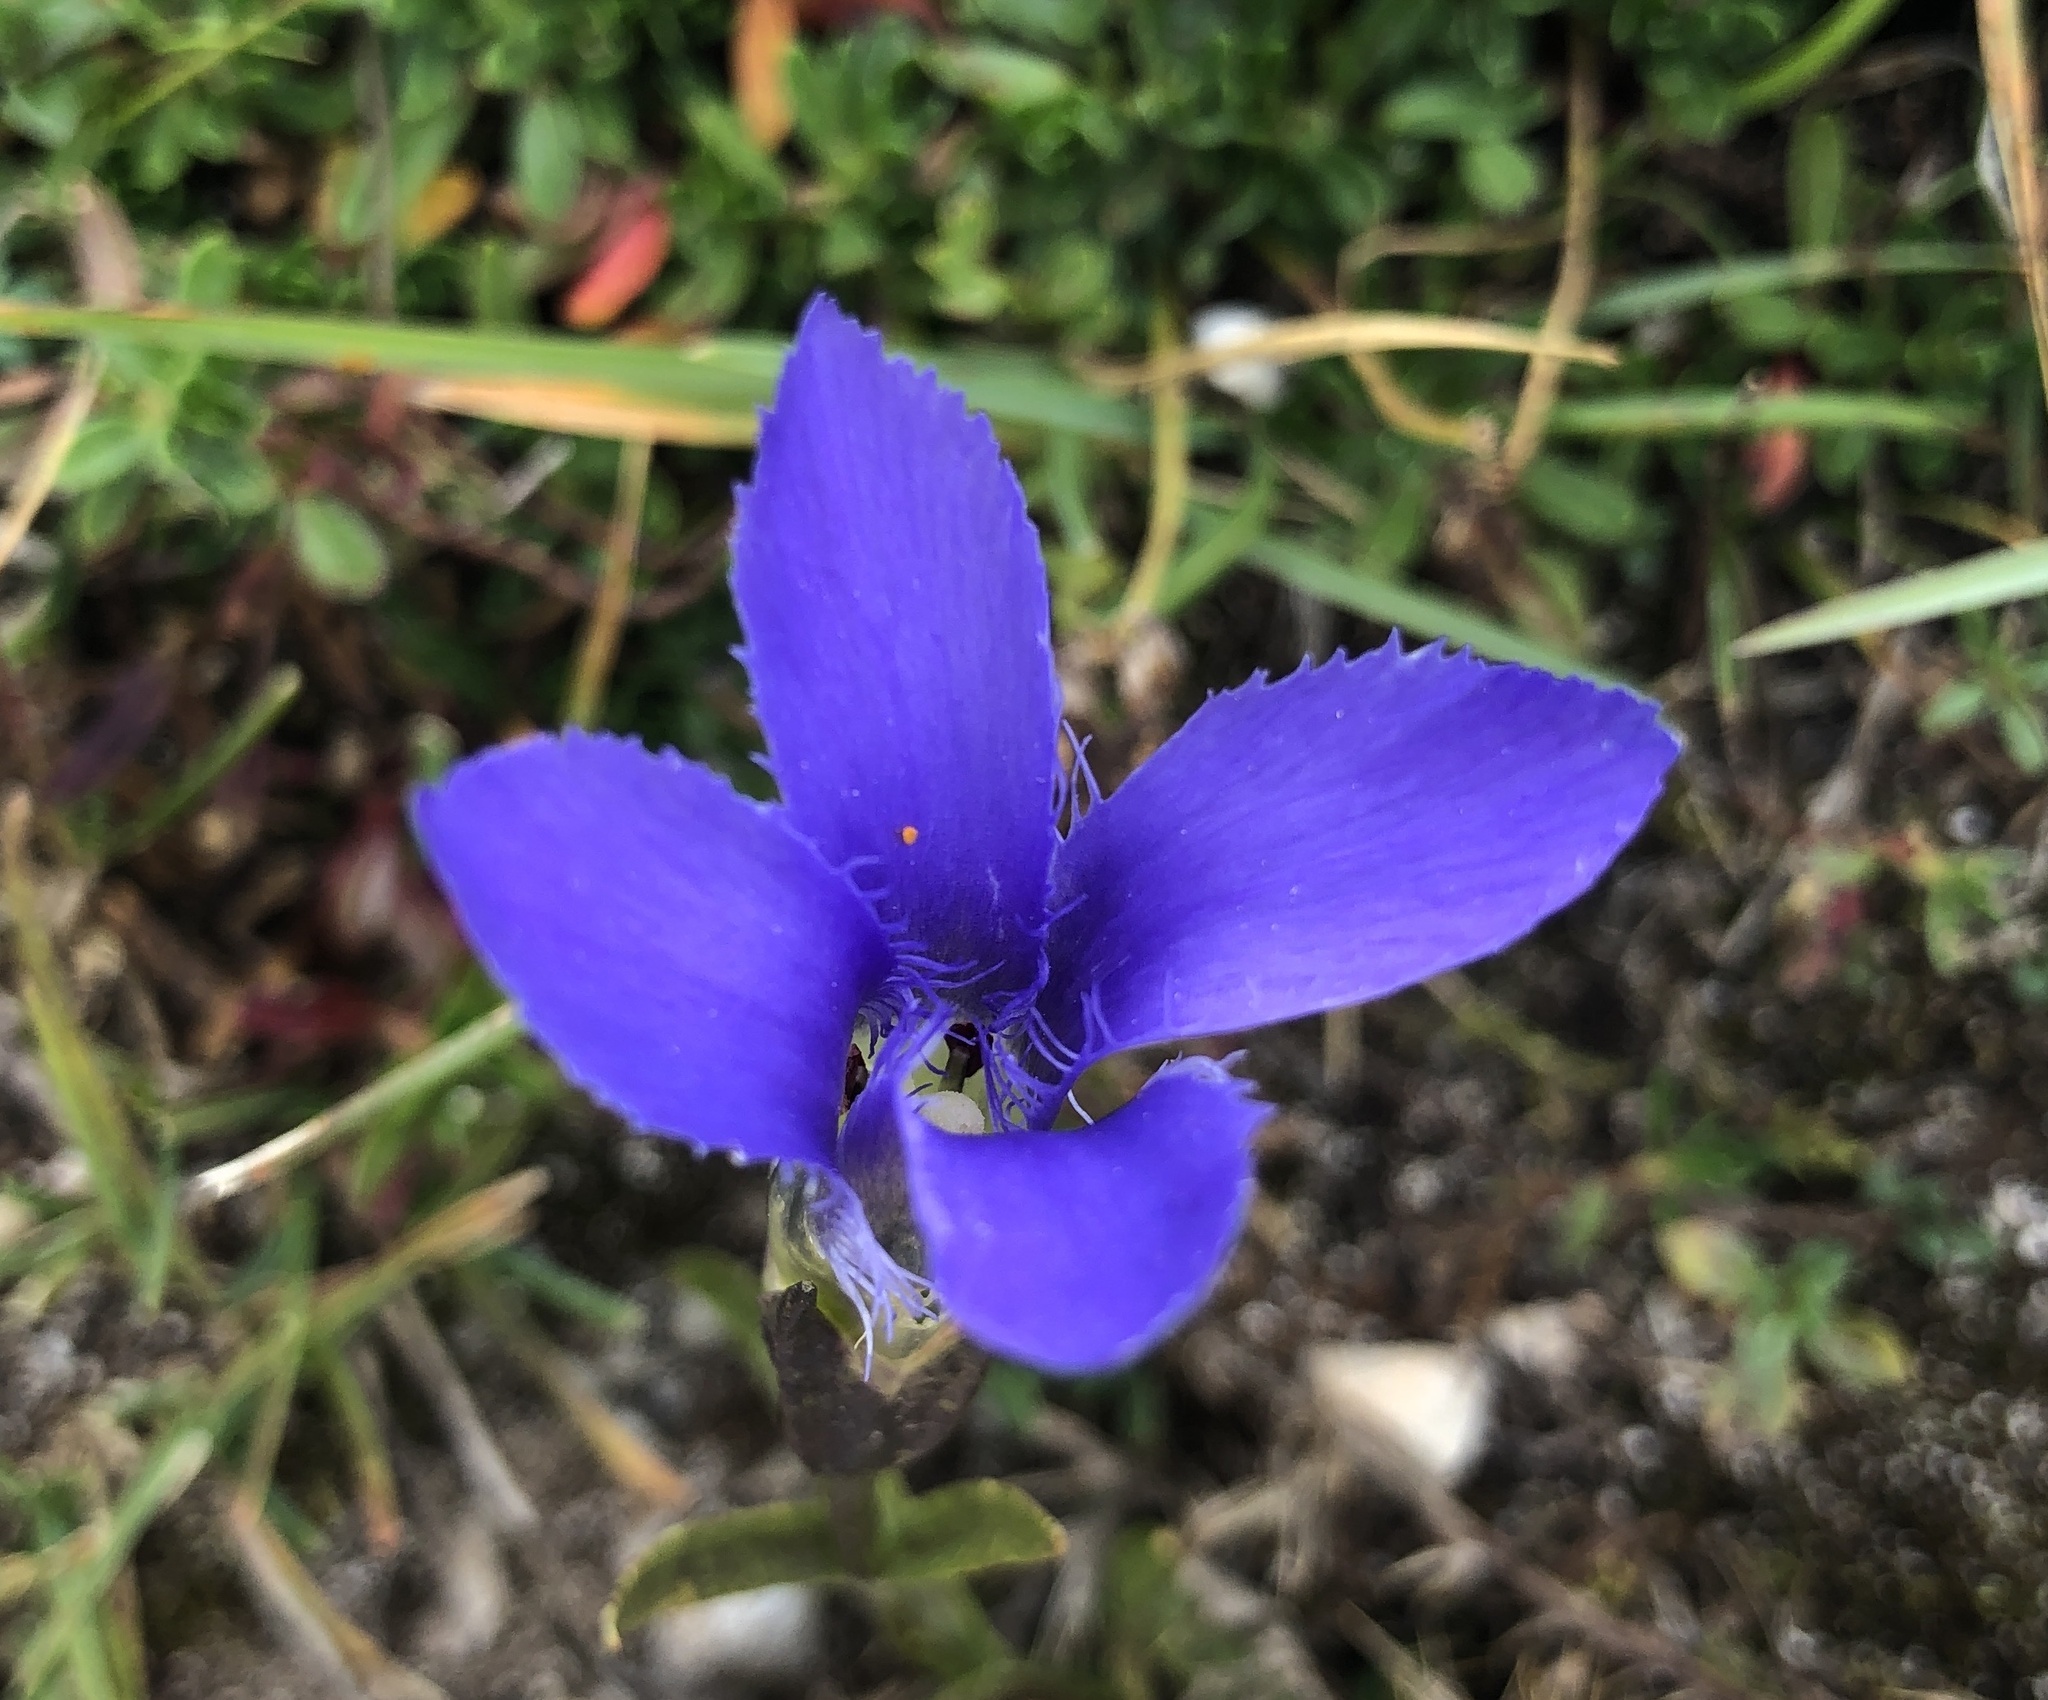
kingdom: Plantae
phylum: Tracheophyta
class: Magnoliopsida
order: Gentianales
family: Gentianaceae
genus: Gentianopsis
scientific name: Gentianopsis ciliata
